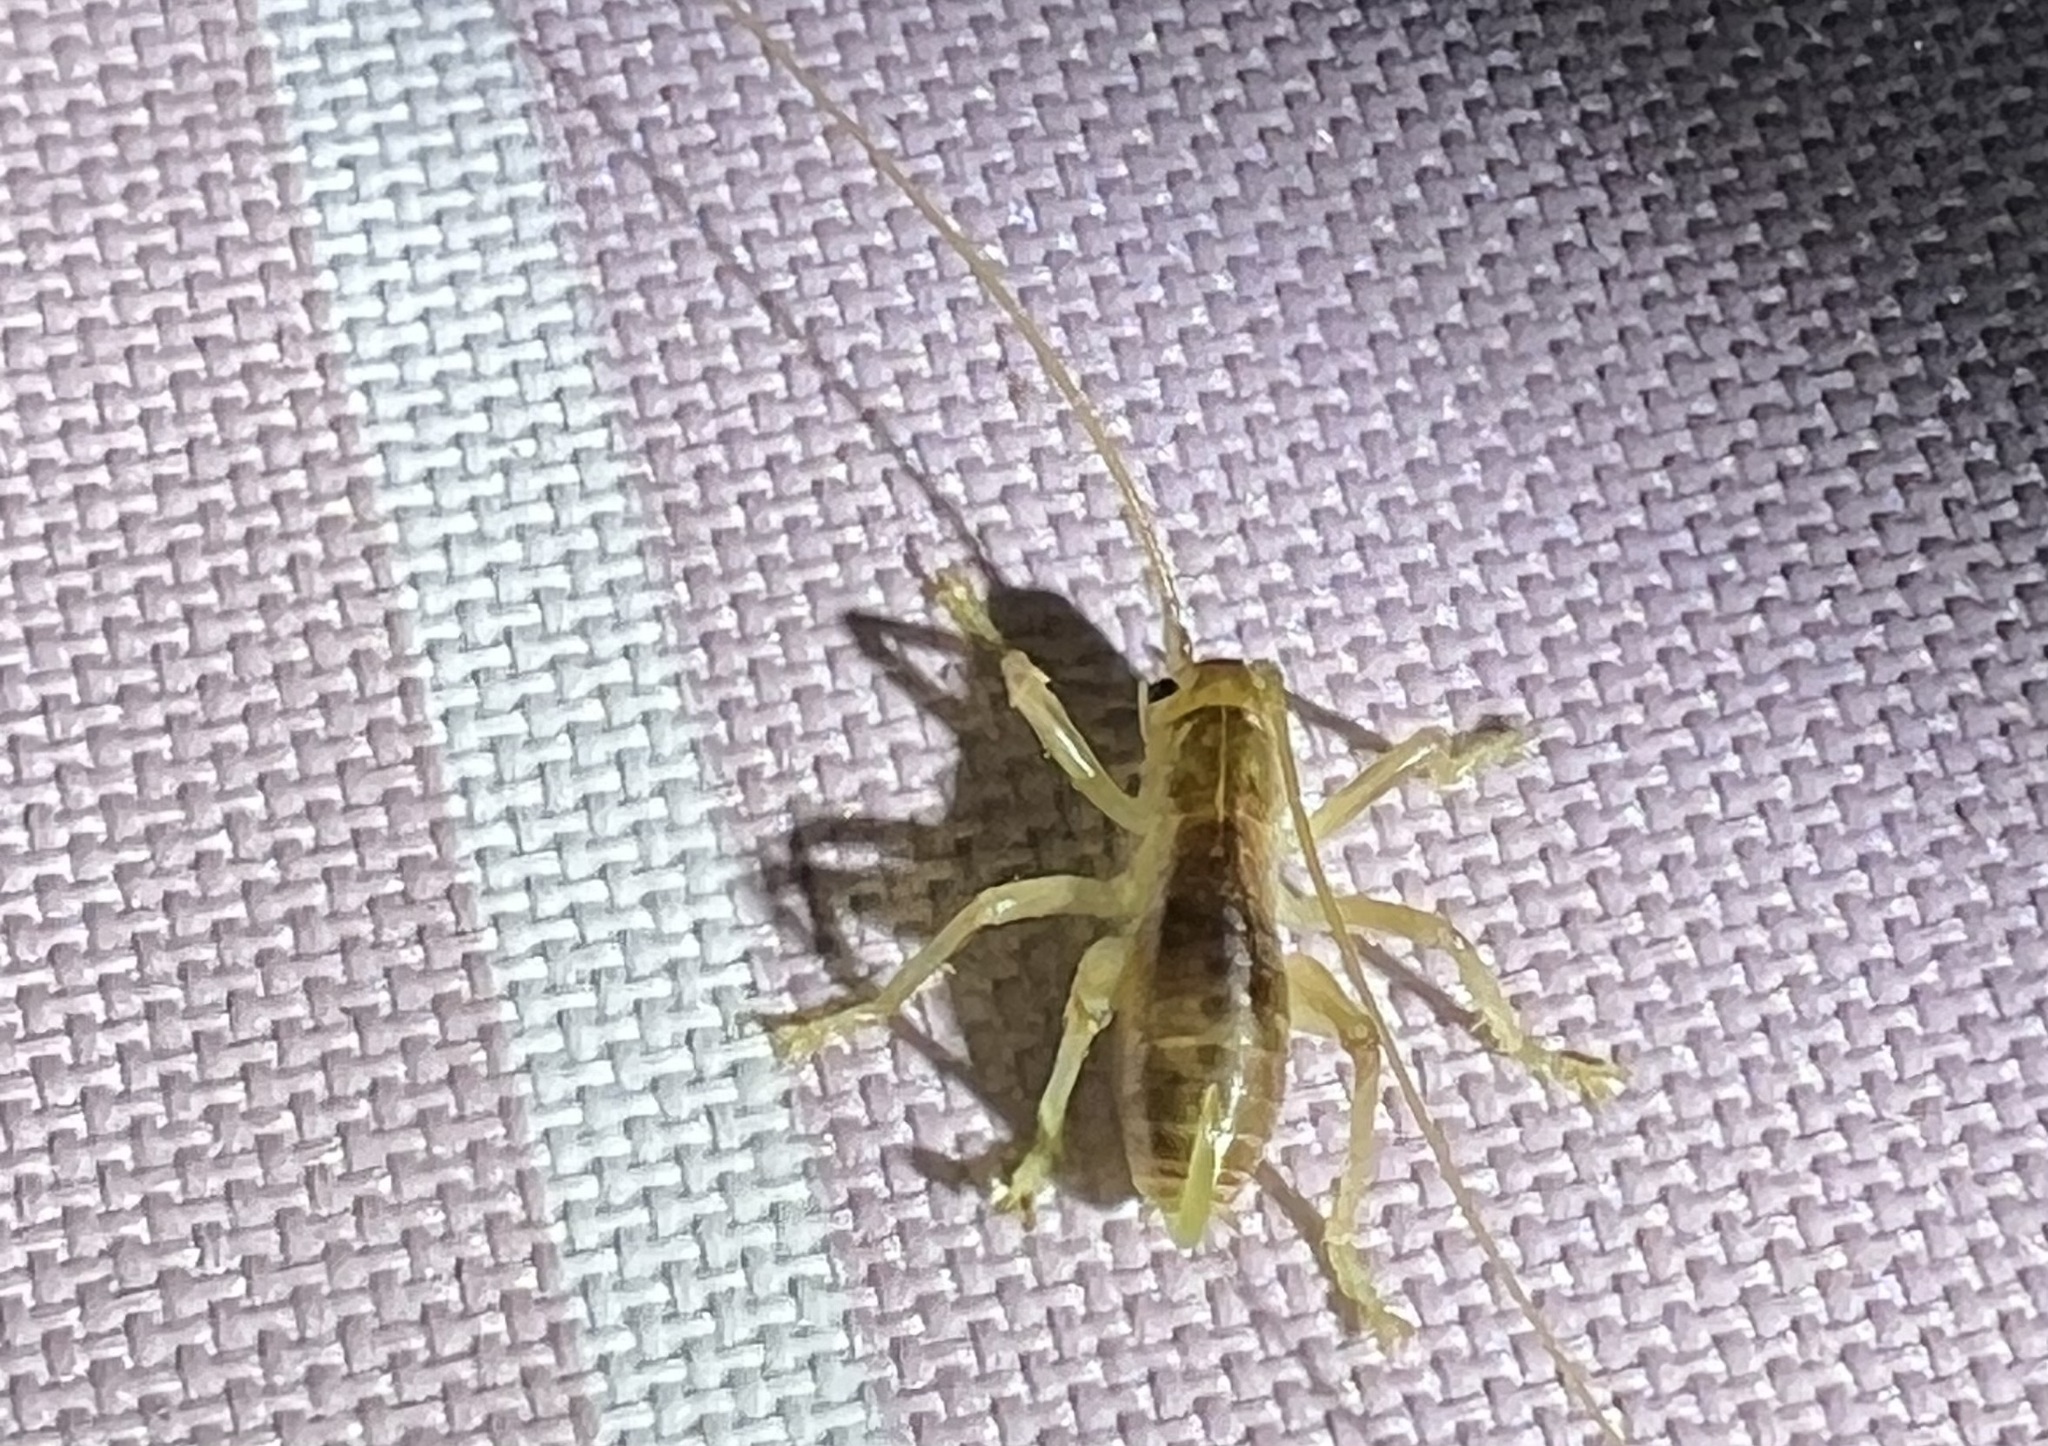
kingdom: Animalia
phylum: Arthropoda
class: Insecta
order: Orthoptera
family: Gryllacrididae
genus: Camptonotus
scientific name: Camptonotus carolinensis
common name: Carolina leaf-roller
